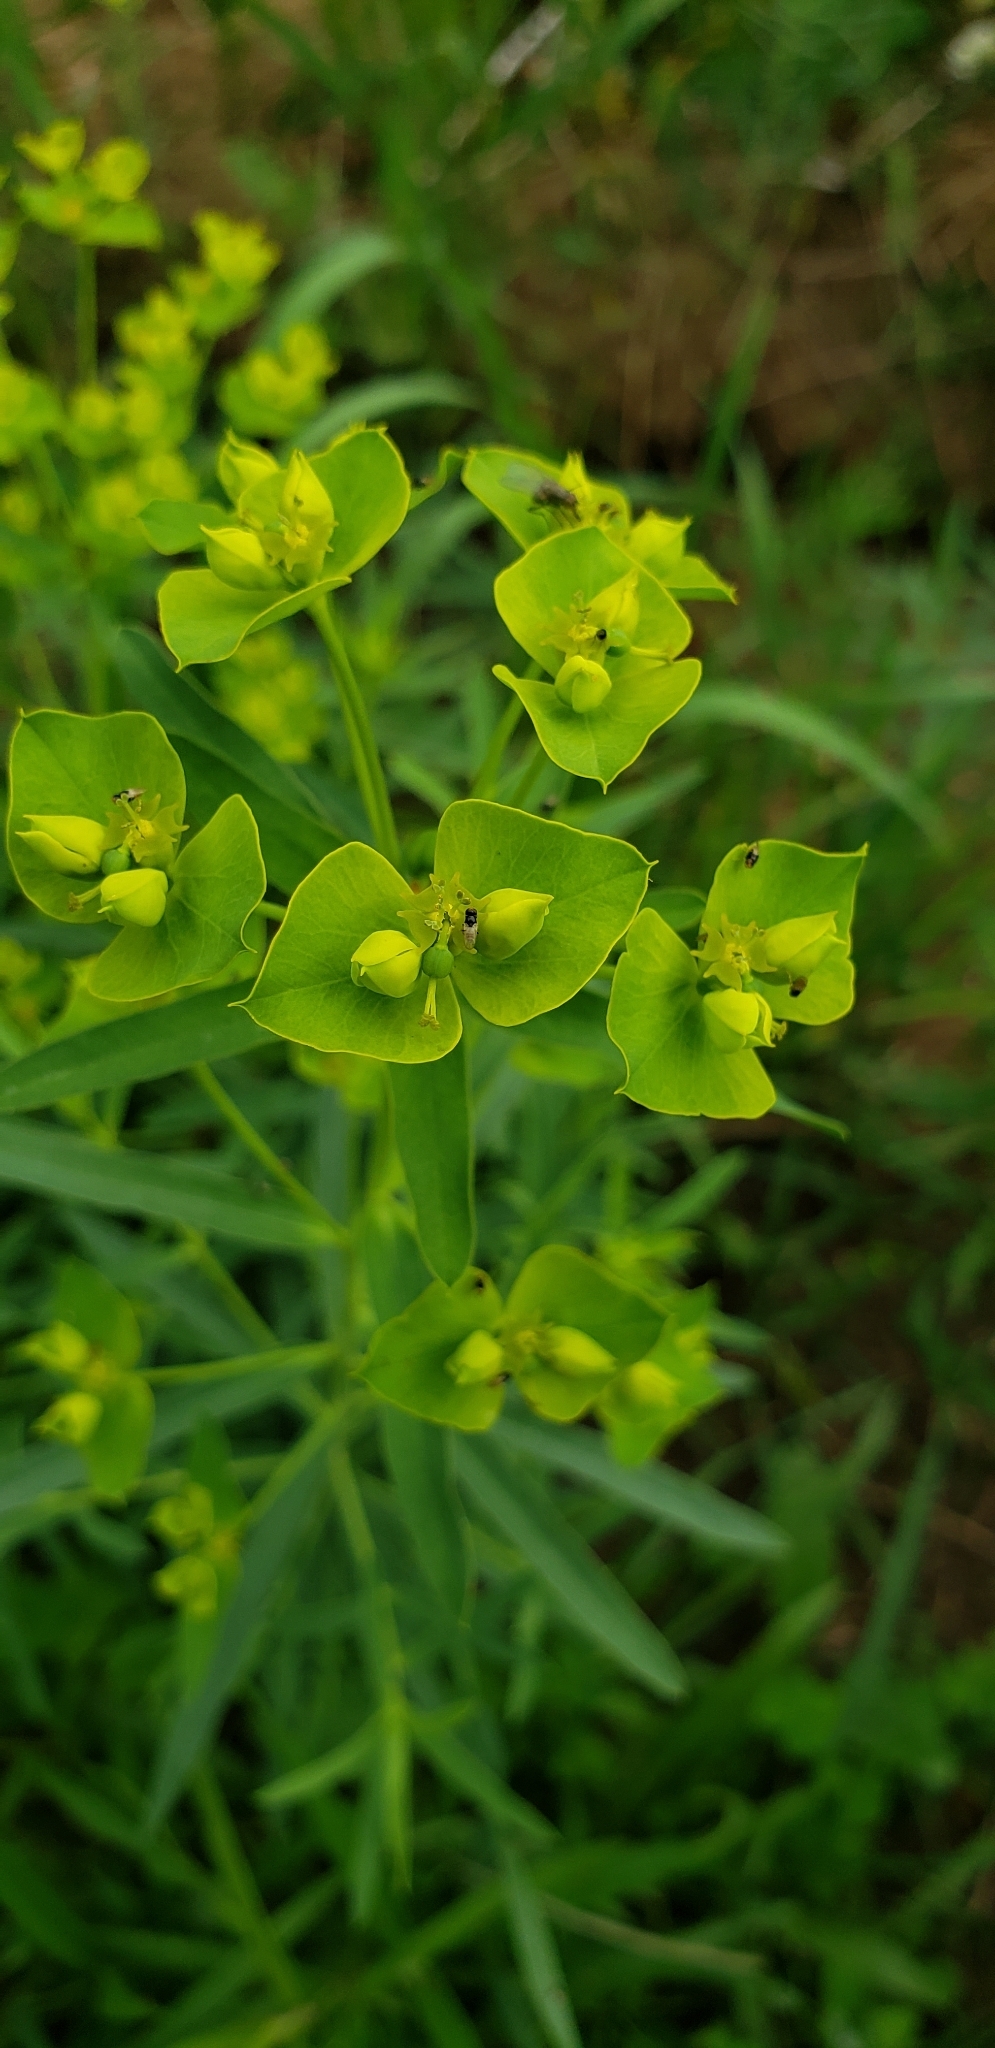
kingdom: Plantae
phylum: Tracheophyta
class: Magnoliopsida
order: Malpighiales
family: Euphorbiaceae
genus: Euphorbia
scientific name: Euphorbia virgata
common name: Leafy spurge
